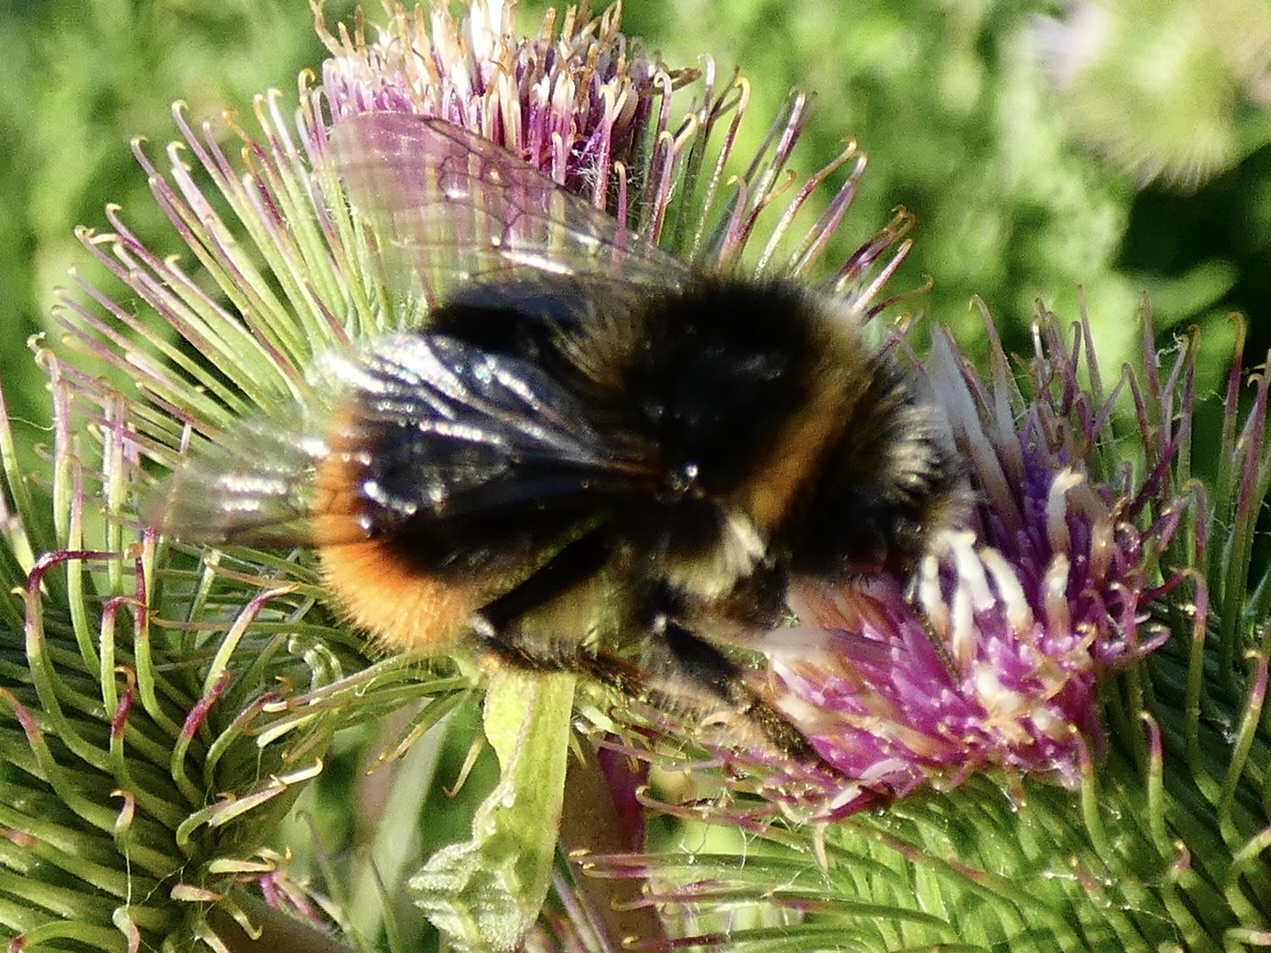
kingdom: Animalia
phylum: Arthropoda
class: Insecta
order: Hymenoptera
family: Apidae
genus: Bombus
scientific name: Bombus lapidarius
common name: Large red-tailed humble-bee
